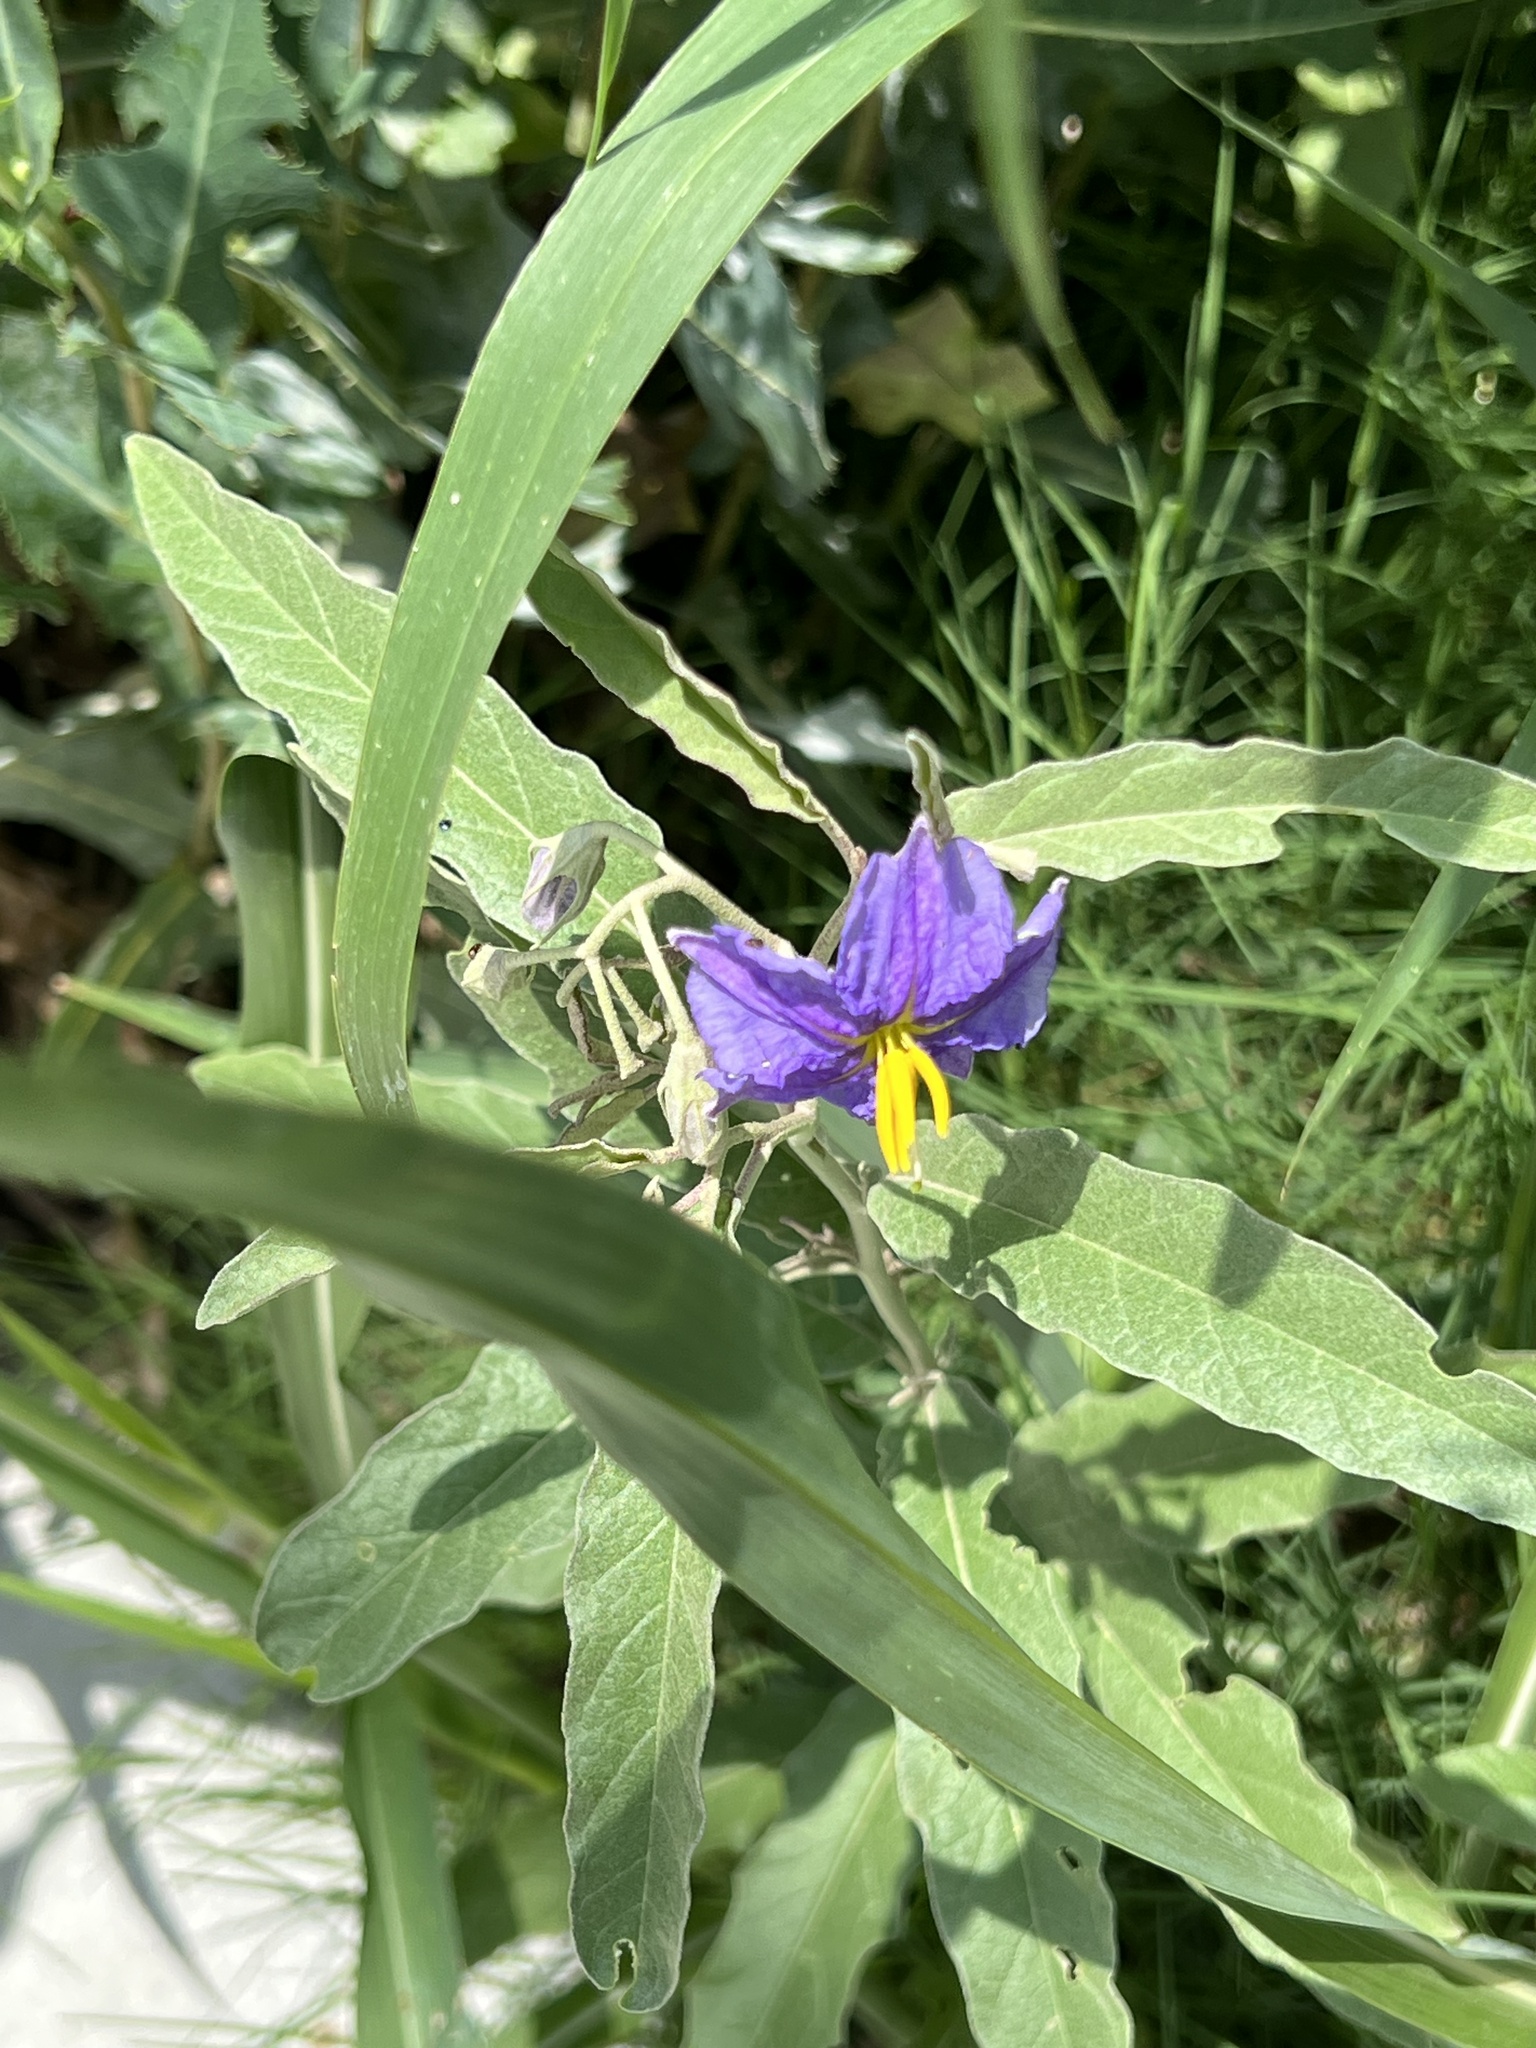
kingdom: Plantae
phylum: Tracheophyta
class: Magnoliopsida
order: Solanales
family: Solanaceae
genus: Solanum
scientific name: Solanum elaeagnifolium
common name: Silverleaf nightshade
